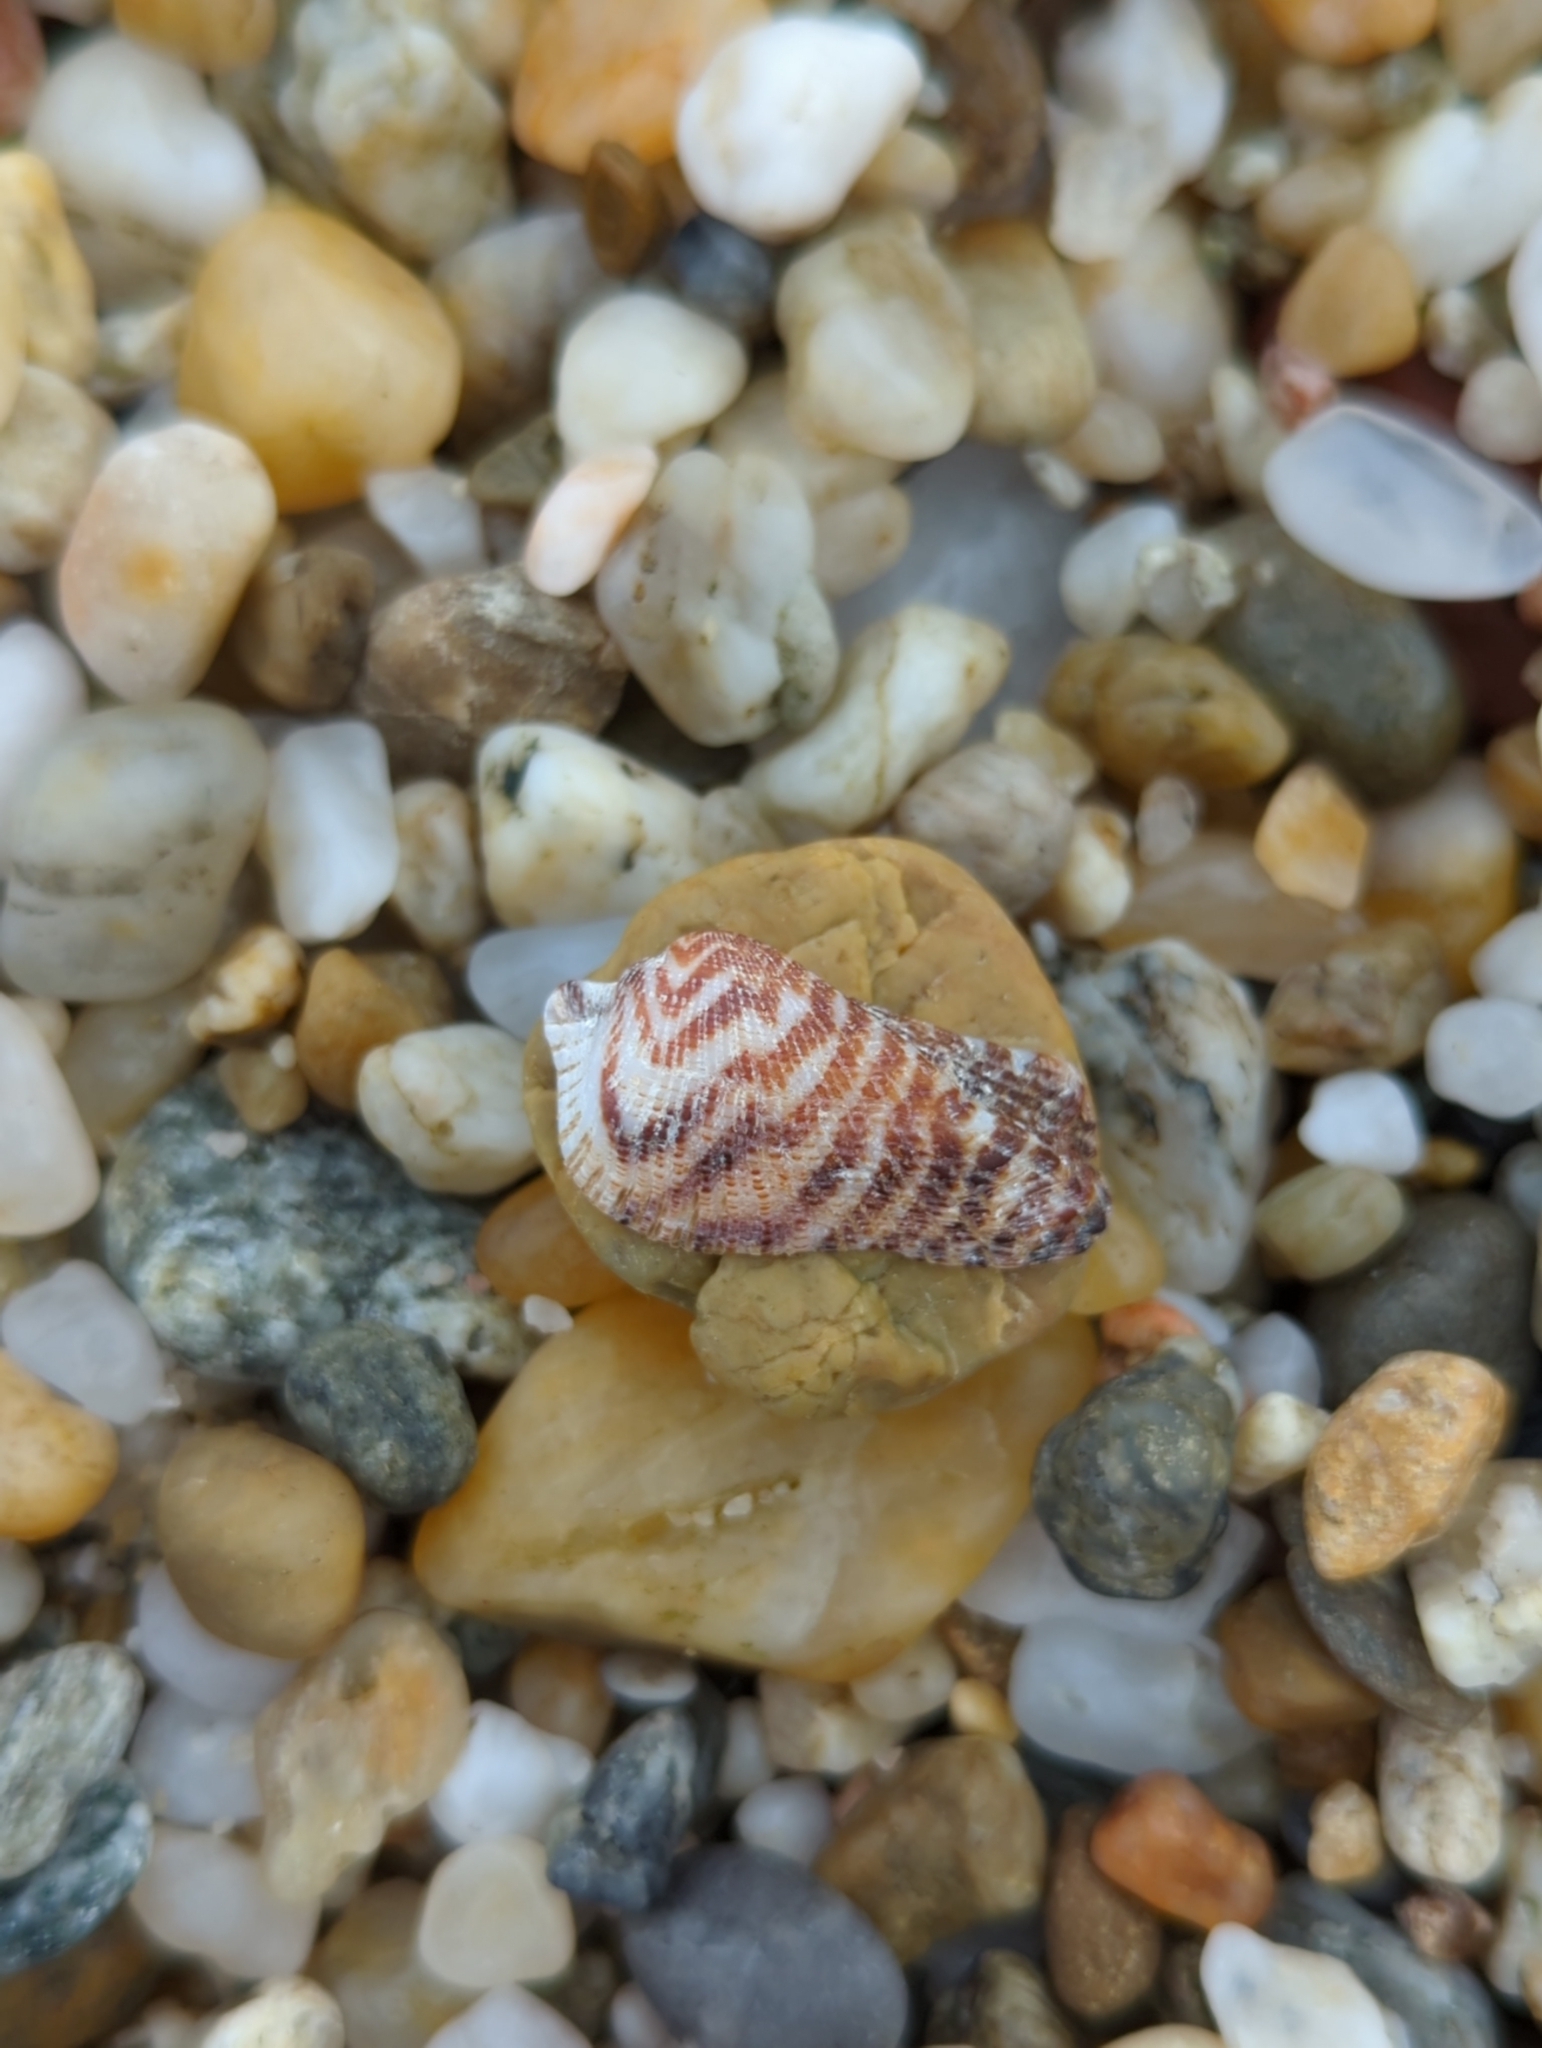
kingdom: Animalia
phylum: Mollusca
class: Bivalvia
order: Arcida
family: Arcidae
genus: Arca
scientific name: Arca noae
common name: Noah's arch
